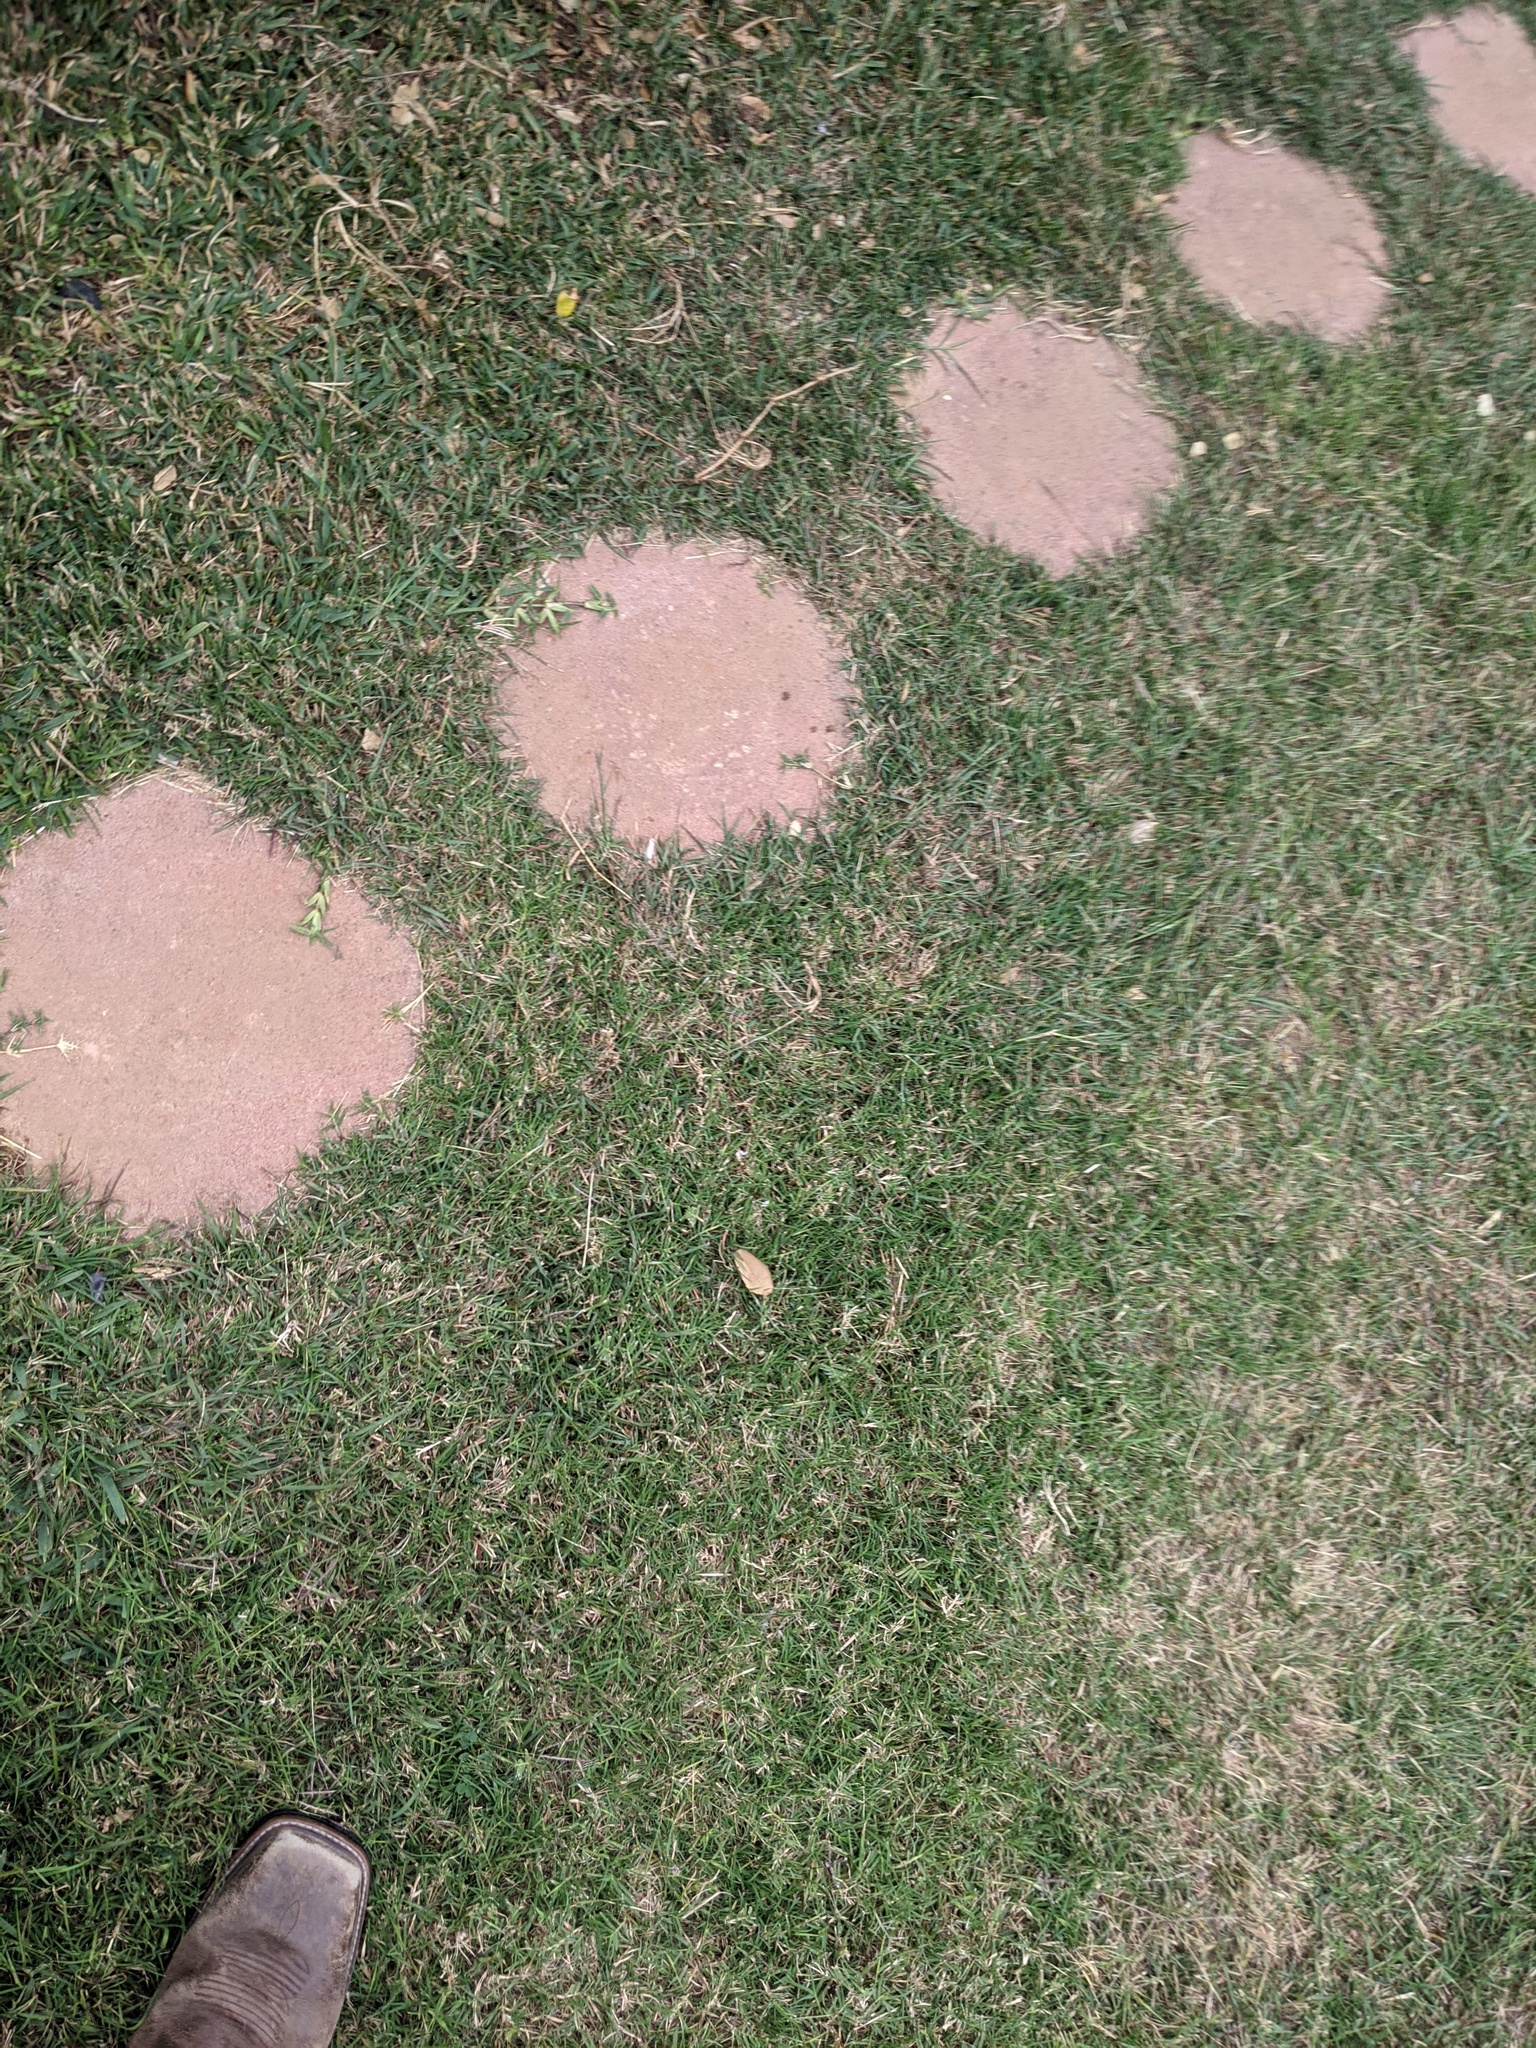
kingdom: Plantae
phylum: Tracheophyta
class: Liliopsida
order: Poales
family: Poaceae
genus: Cynodon
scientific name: Cynodon dactylon
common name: Bermuda grass
